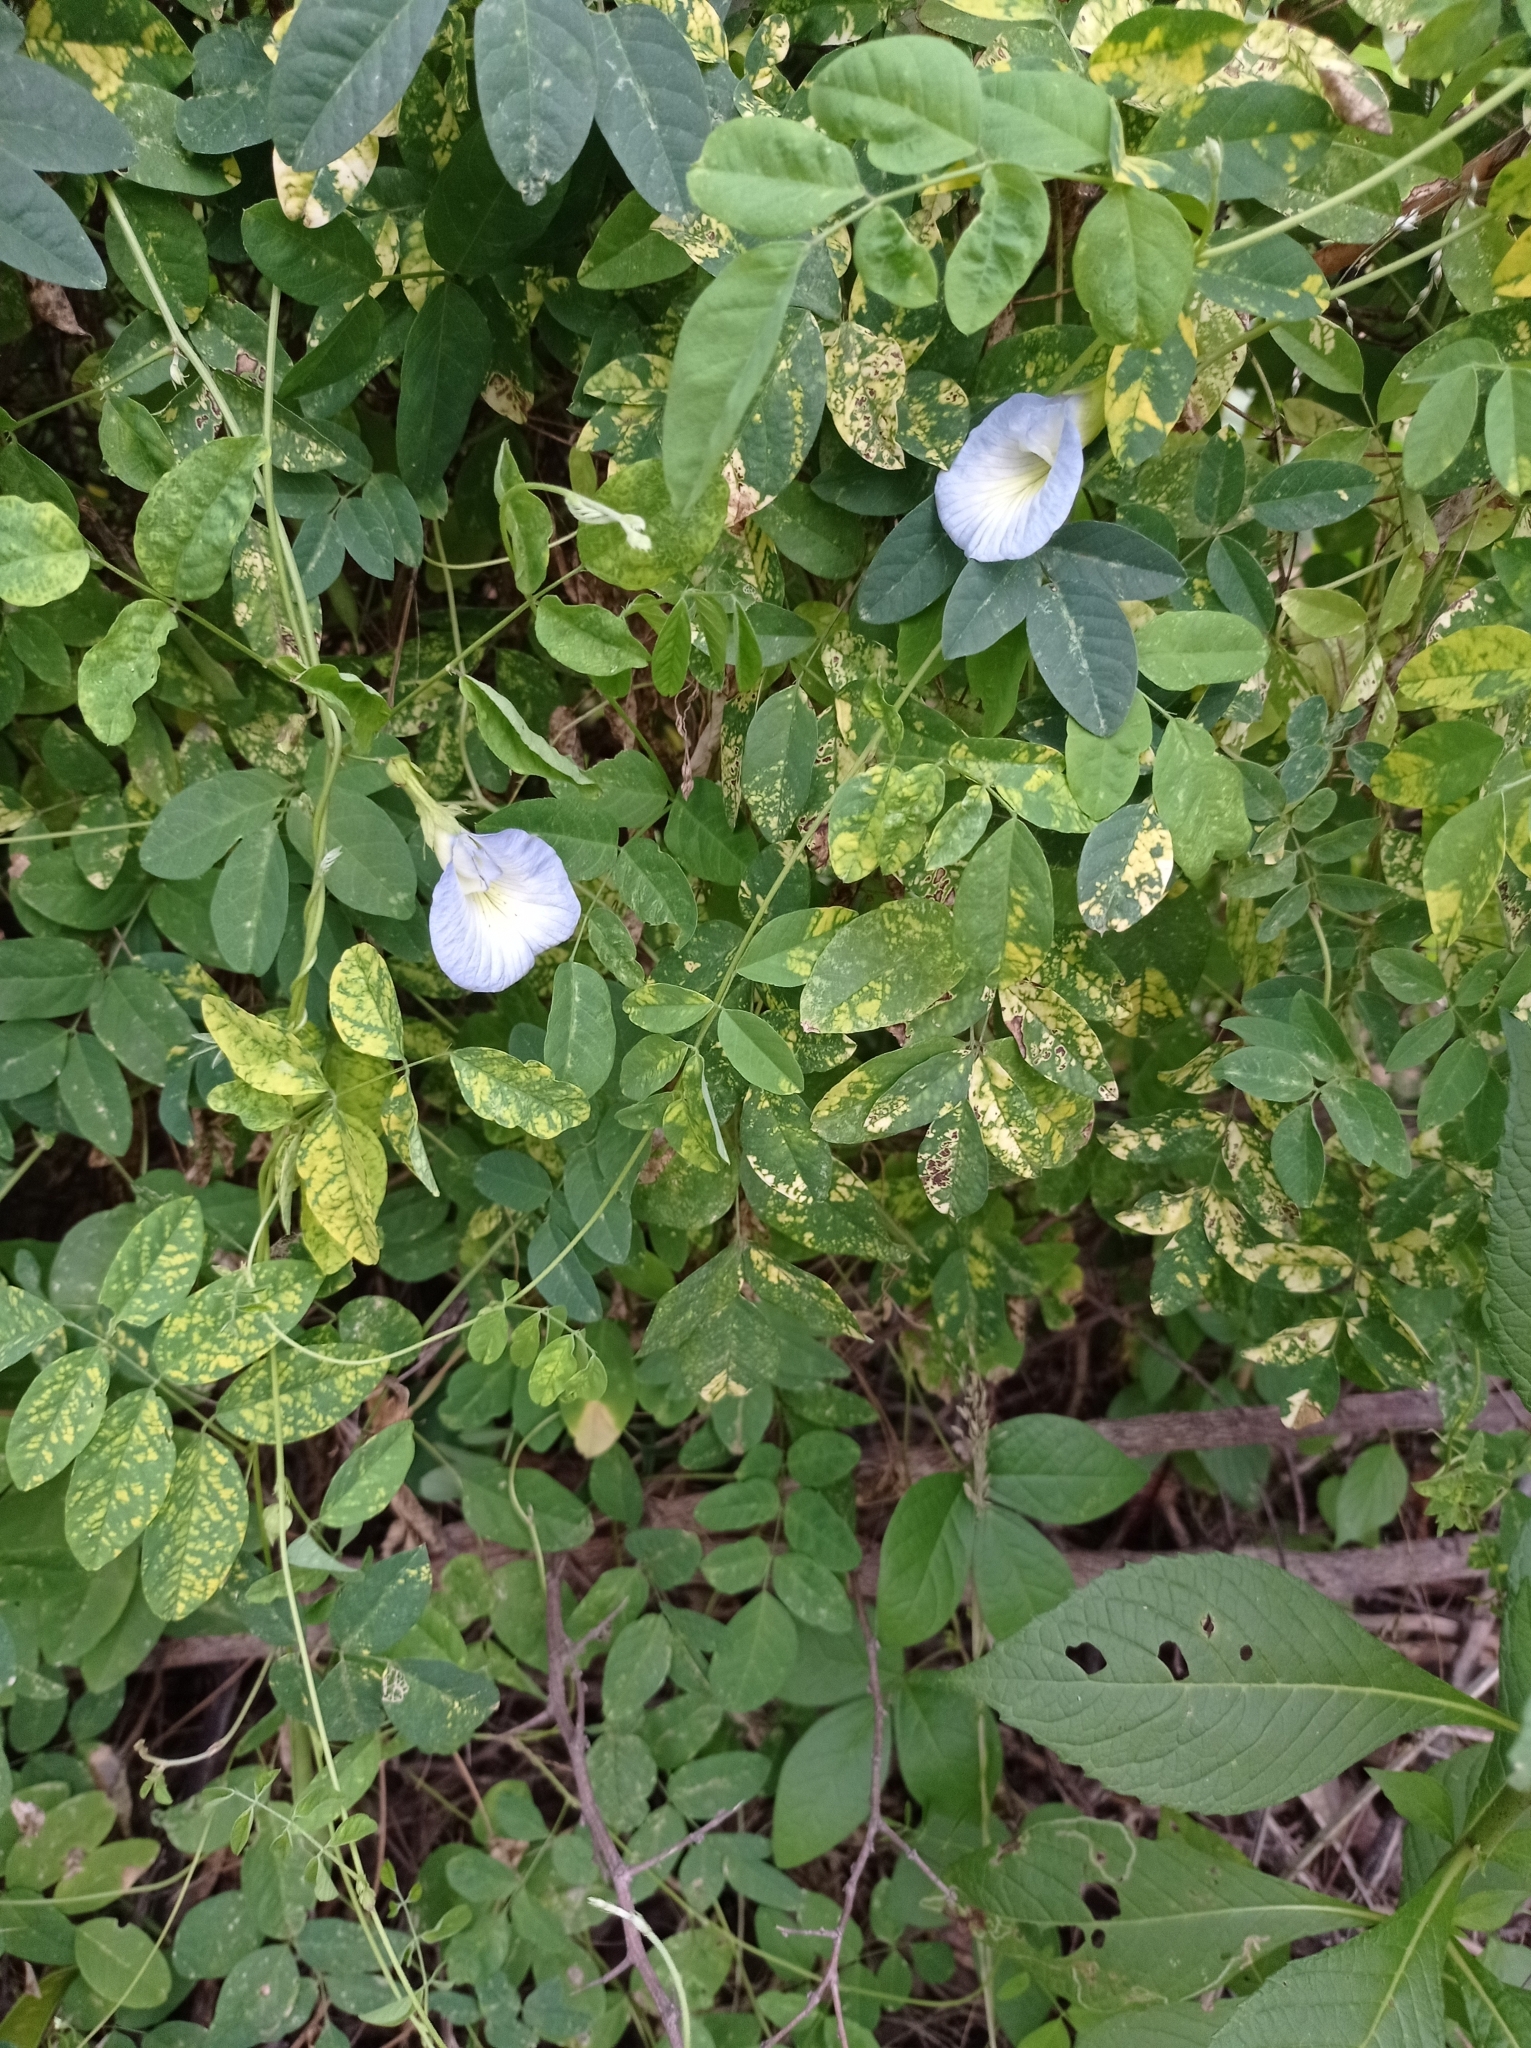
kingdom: Plantae
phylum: Tracheophyta
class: Magnoliopsida
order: Fabales
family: Fabaceae
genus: Clitoria
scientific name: Clitoria ternatea
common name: Asian pigeonwings
